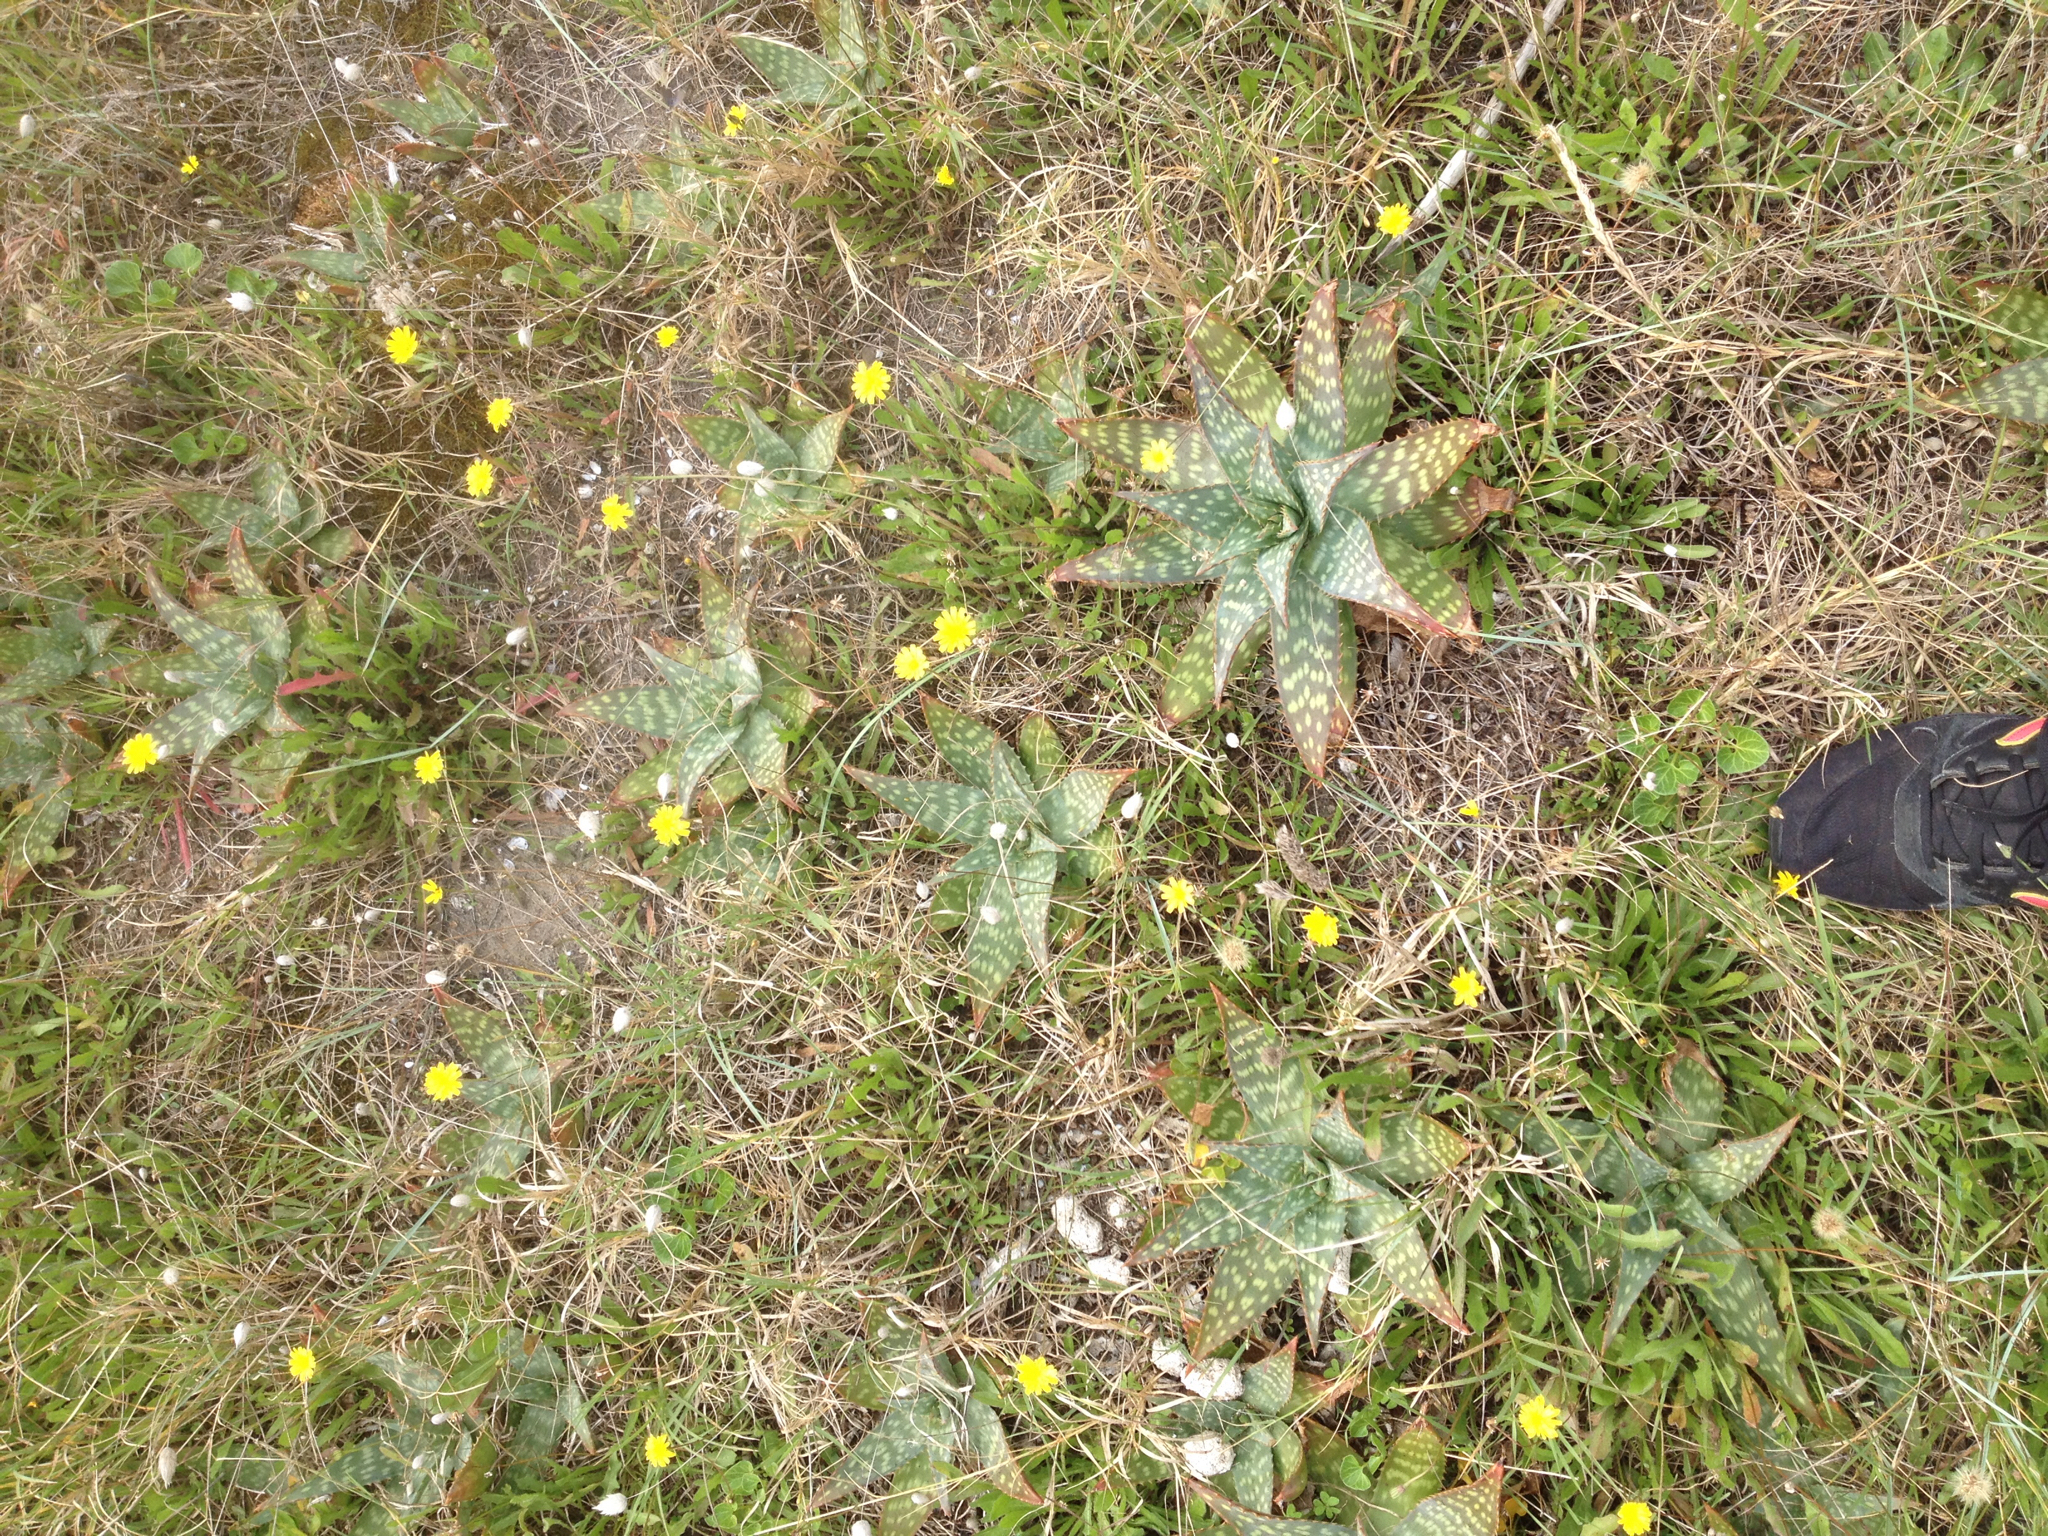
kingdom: Plantae
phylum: Tracheophyta
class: Liliopsida
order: Asparagales
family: Asphodelaceae
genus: Aloe
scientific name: Aloe maculata
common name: Broadleaf aloe
